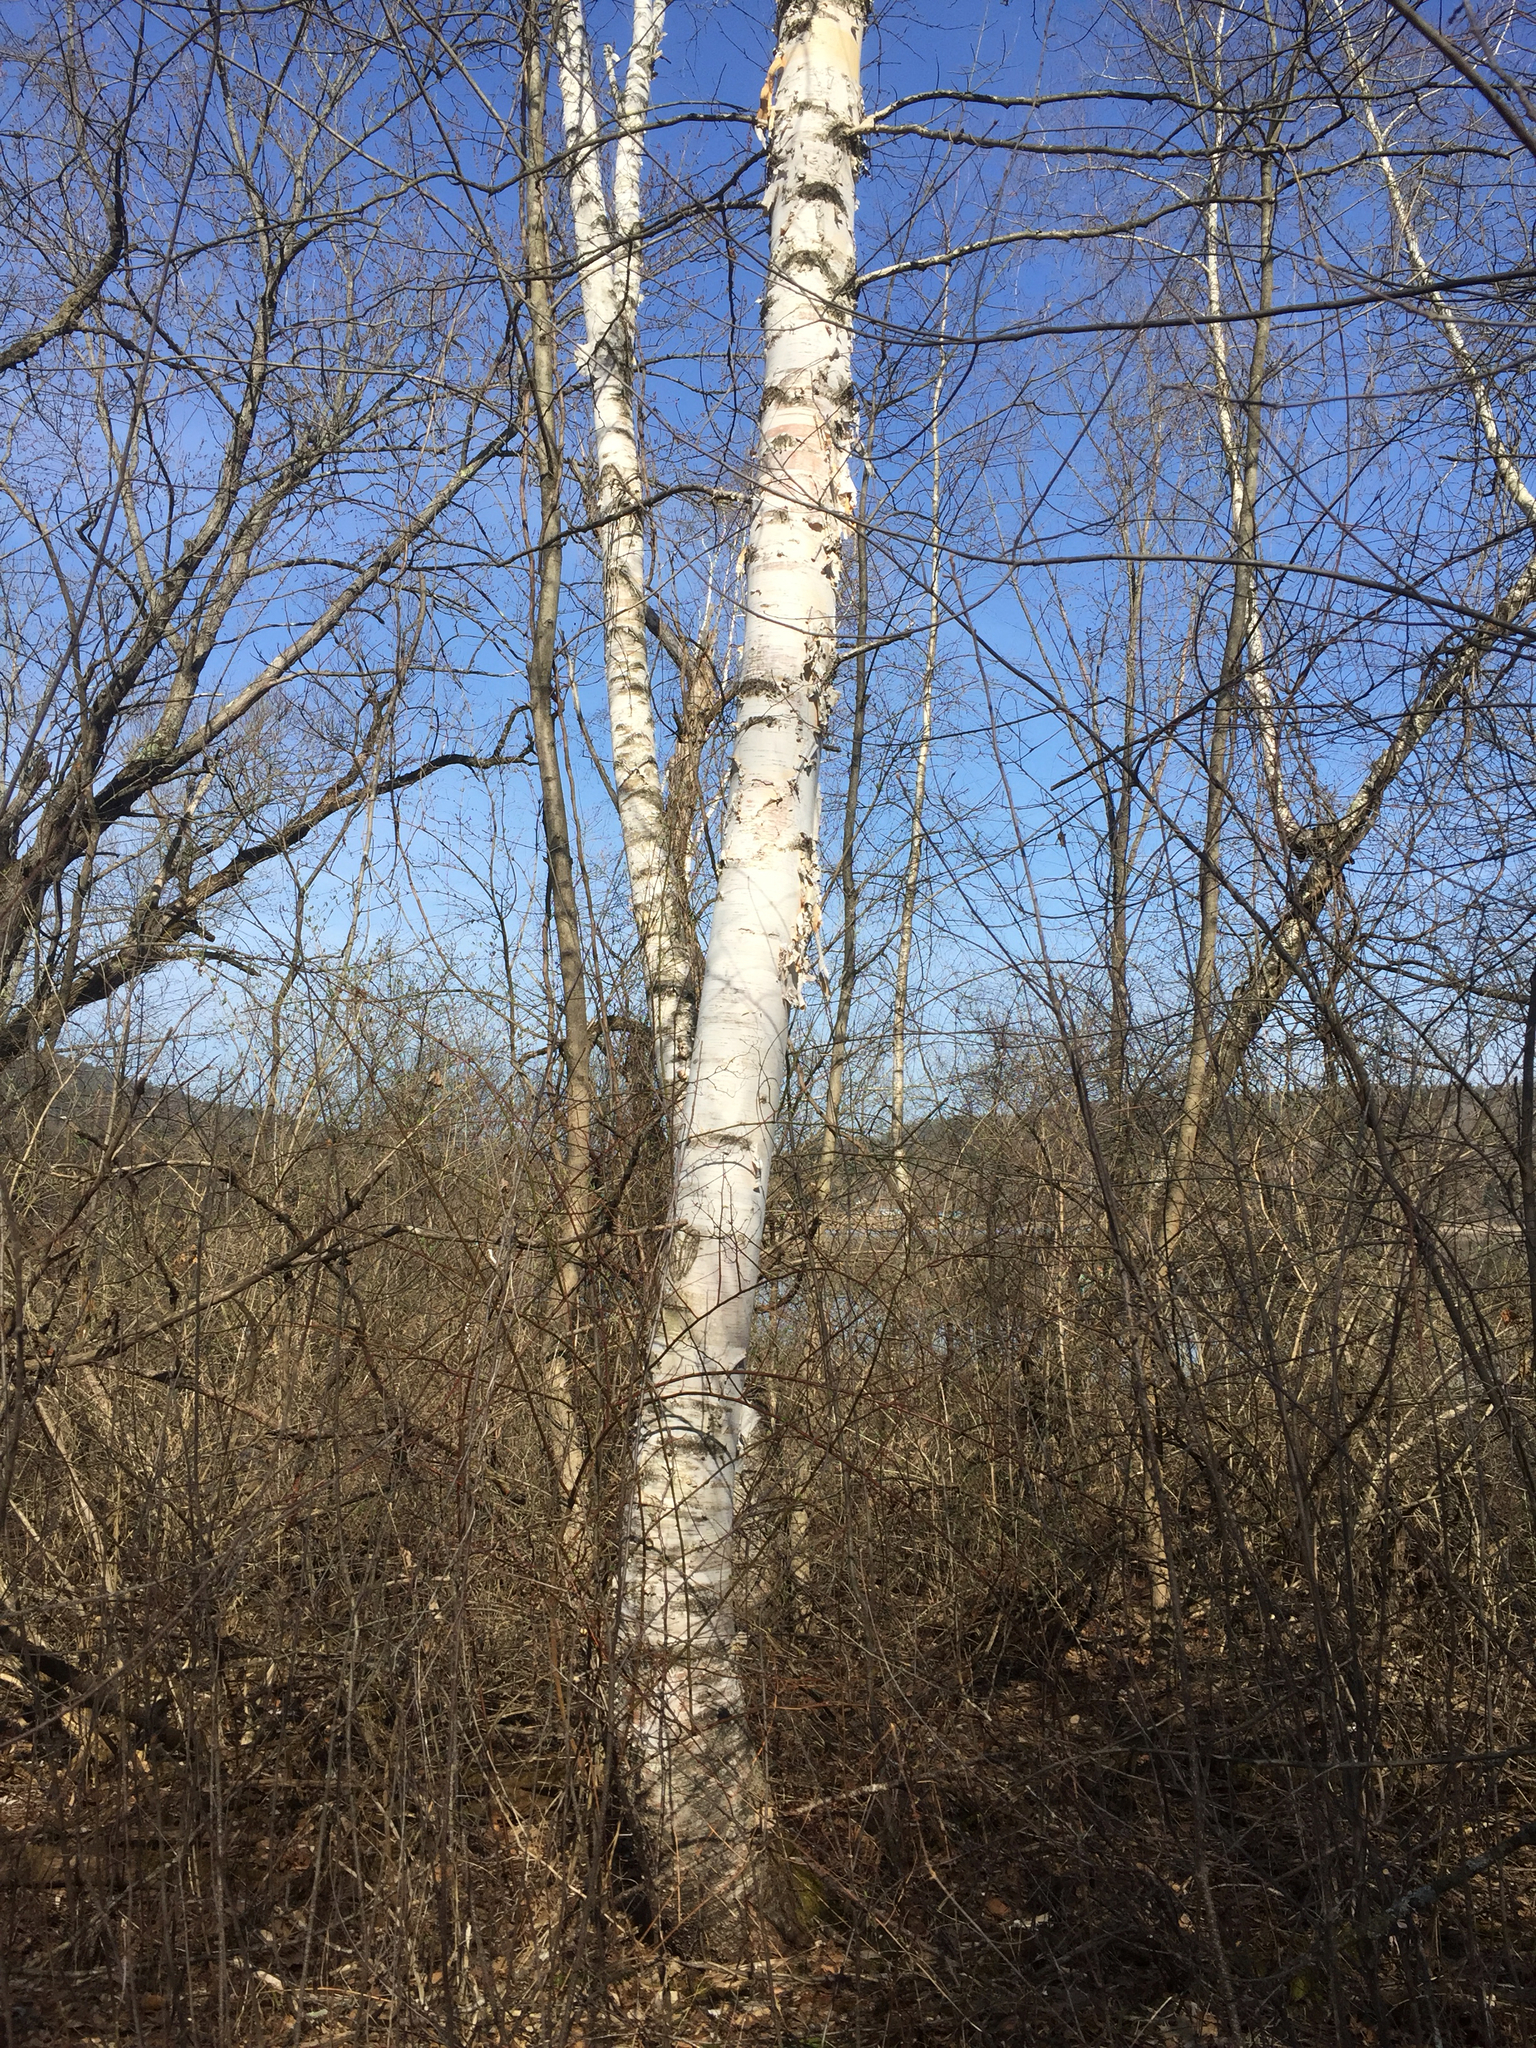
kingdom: Plantae
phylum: Tracheophyta
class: Magnoliopsida
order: Fagales
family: Betulaceae
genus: Betula
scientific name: Betula papyrifera
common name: Paper birch
